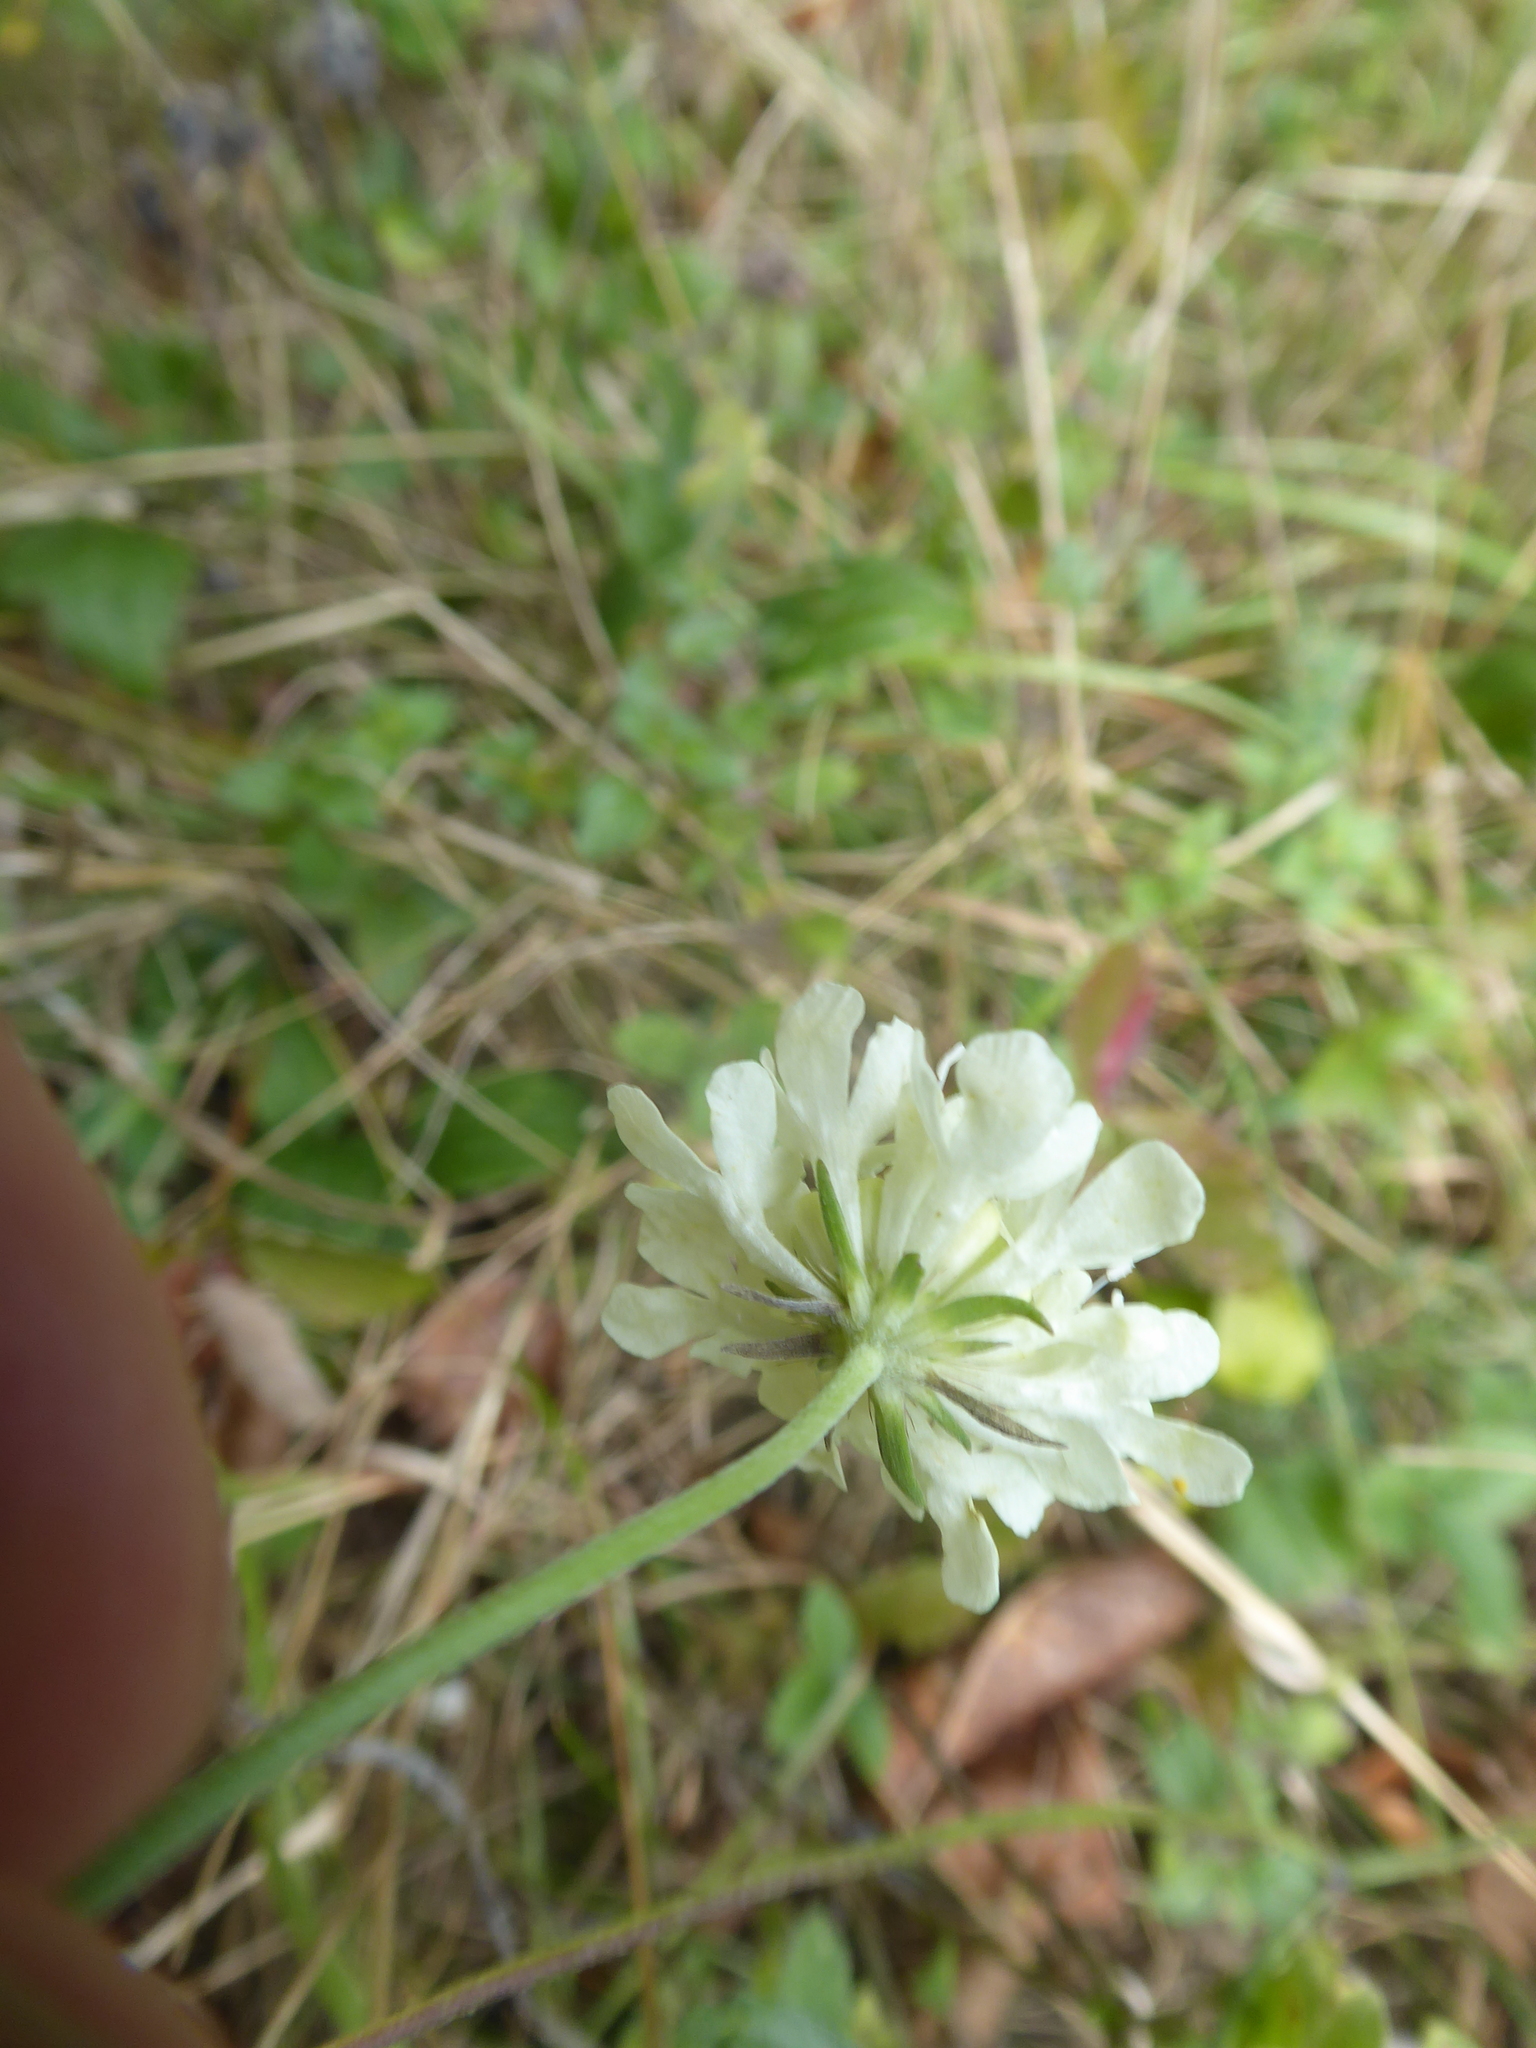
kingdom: Plantae
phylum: Tracheophyta
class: Magnoliopsida
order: Dipsacales
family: Caprifoliaceae
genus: Scabiosa
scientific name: Scabiosa ochroleuca
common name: Cream pincushions
